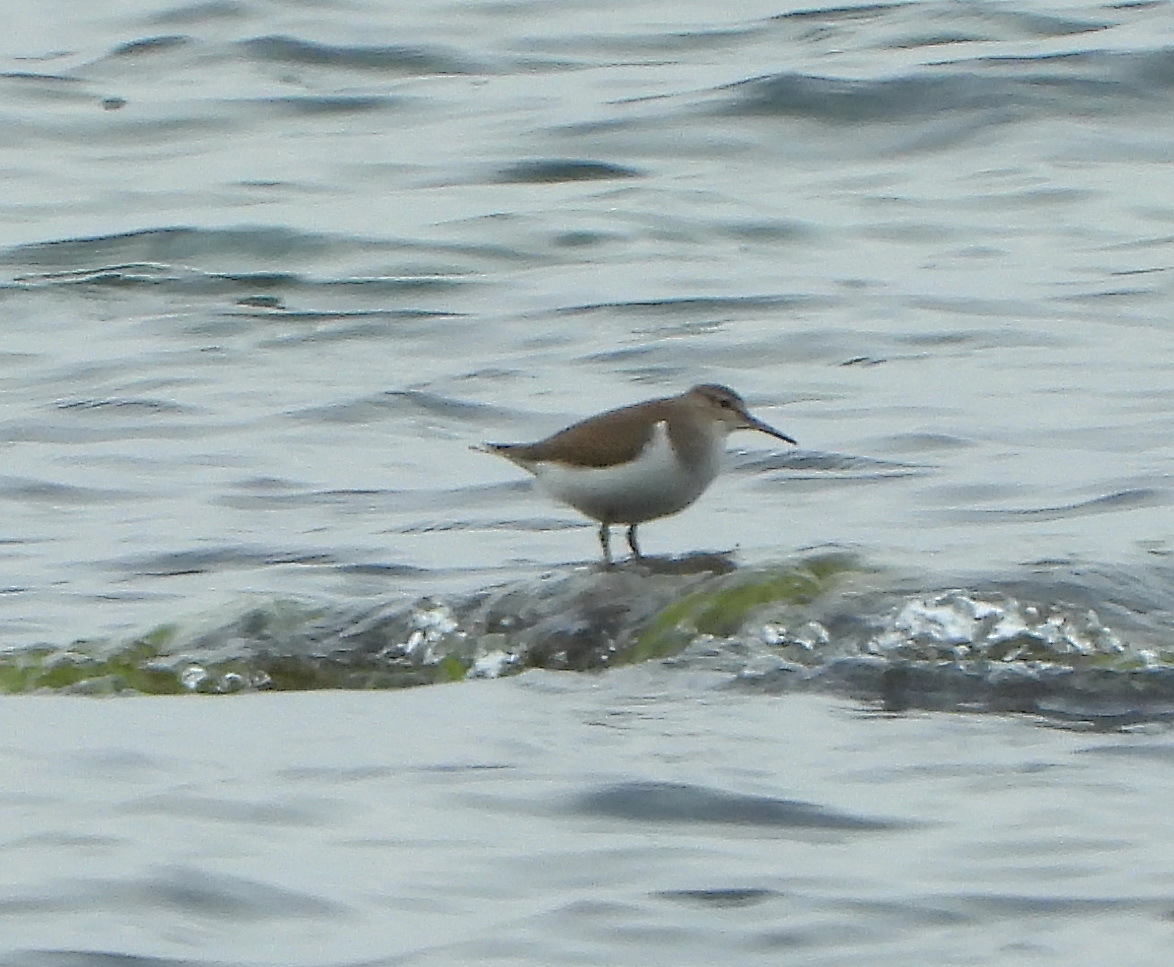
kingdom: Animalia
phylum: Chordata
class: Aves
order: Charadriiformes
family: Scolopacidae
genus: Actitis
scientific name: Actitis hypoleucos
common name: Common sandpiper
